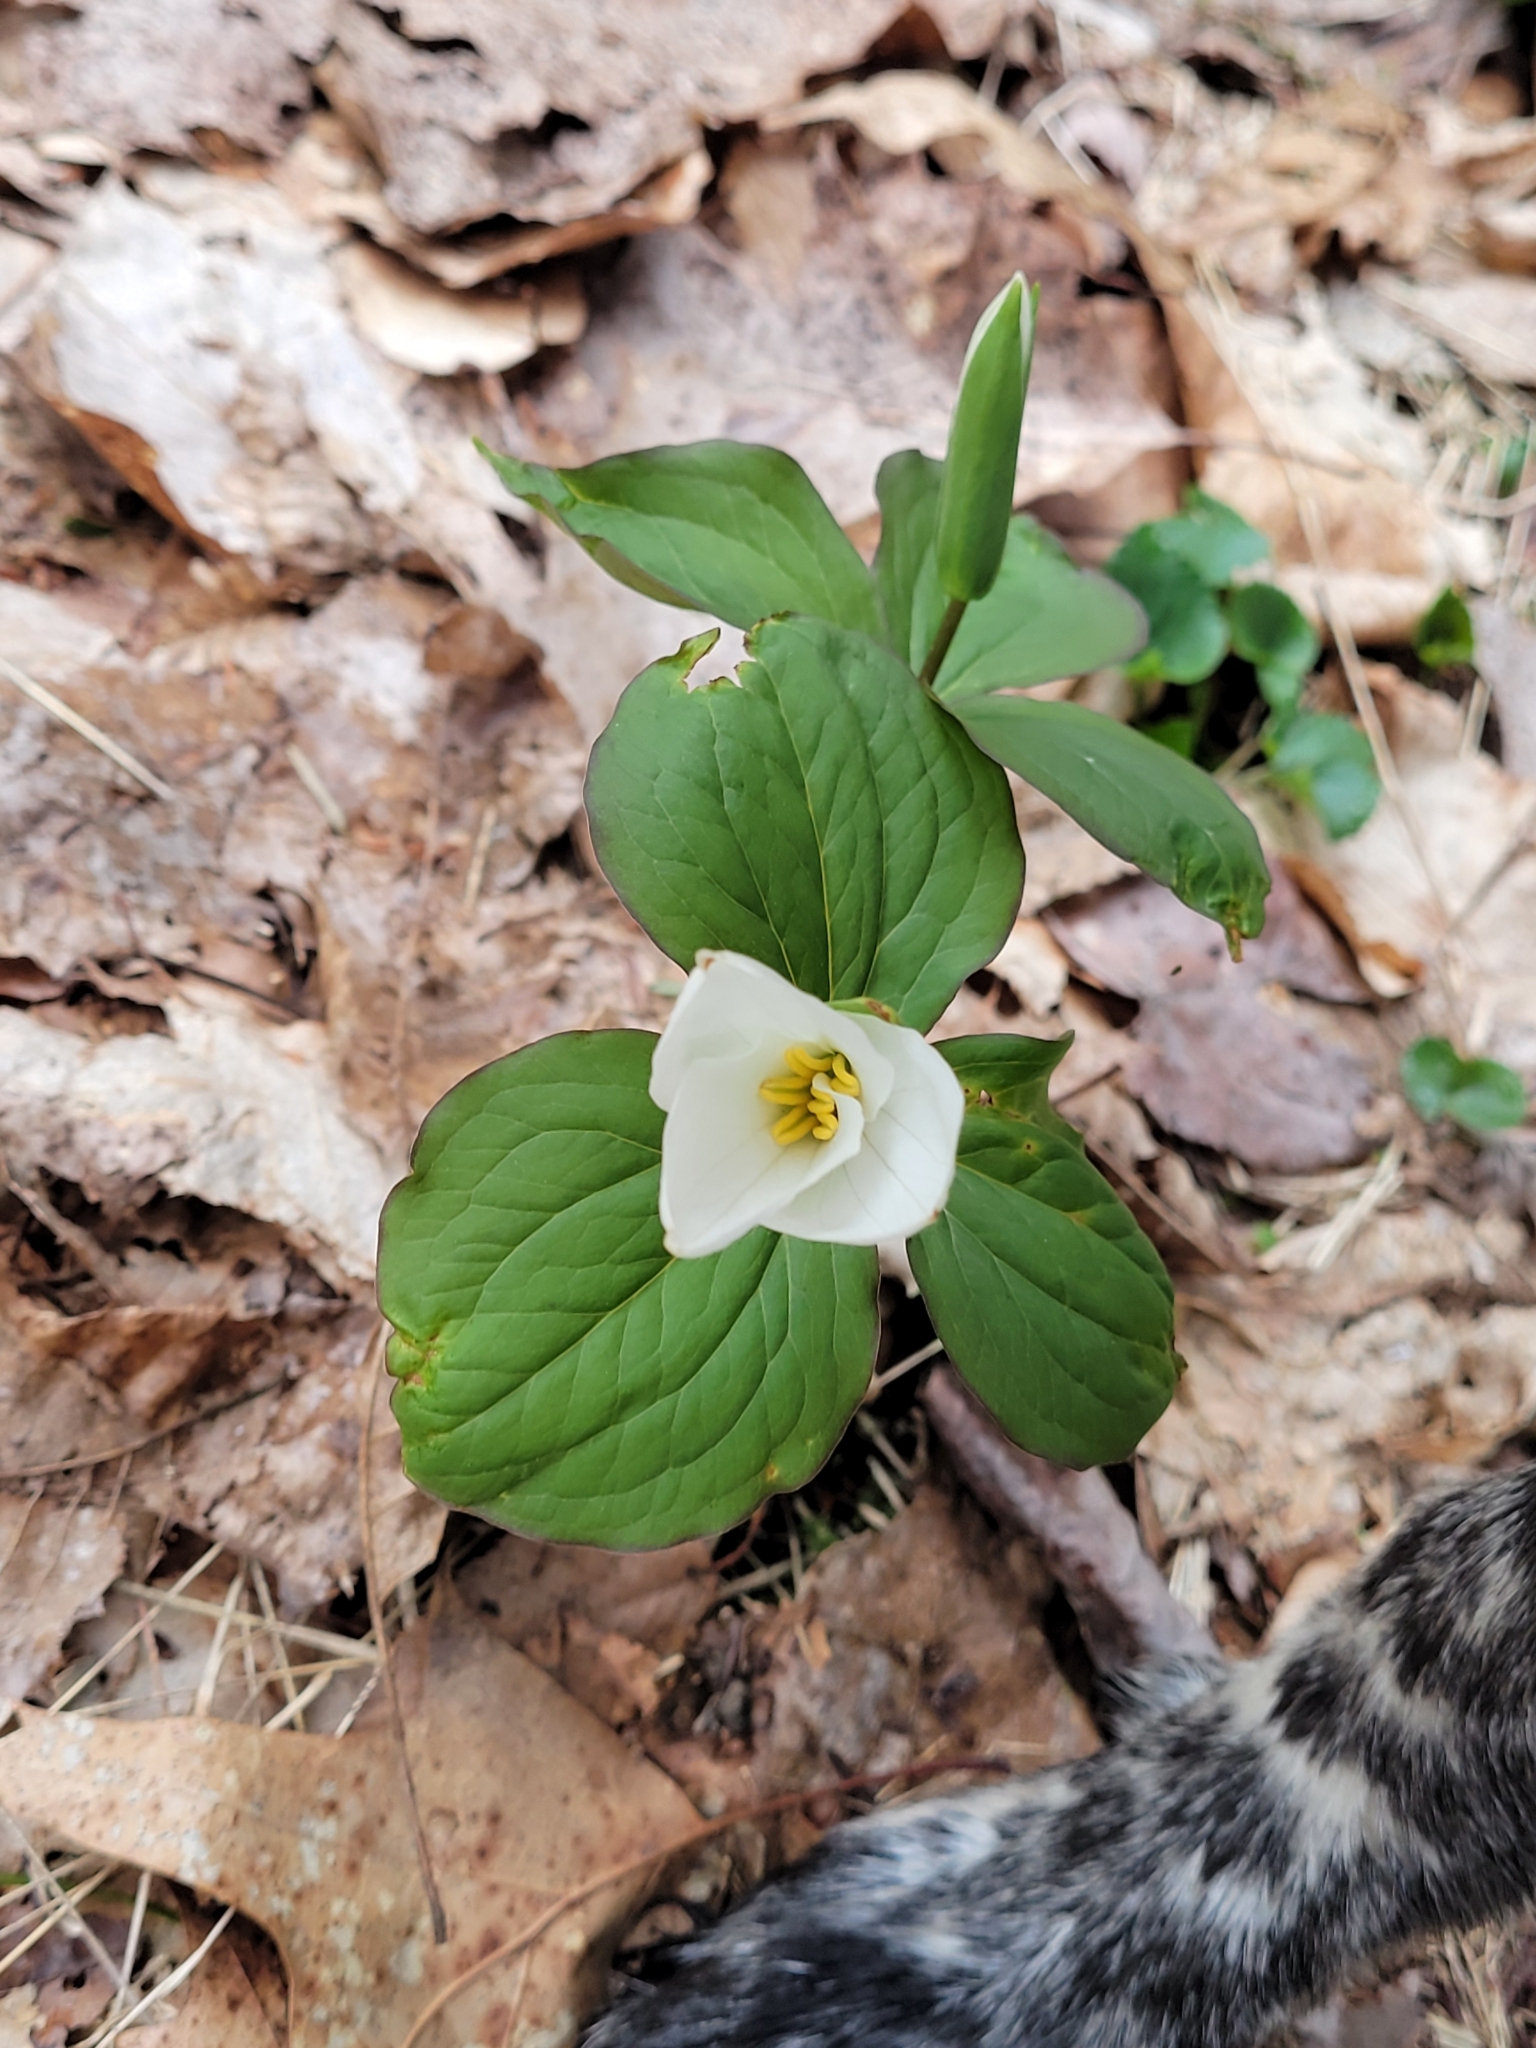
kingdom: Plantae
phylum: Tracheophyta
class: Liliopsida
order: Liliales
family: Melanthiaceae
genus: Trillium
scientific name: Trillium grandiflorum
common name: Great white trillium
